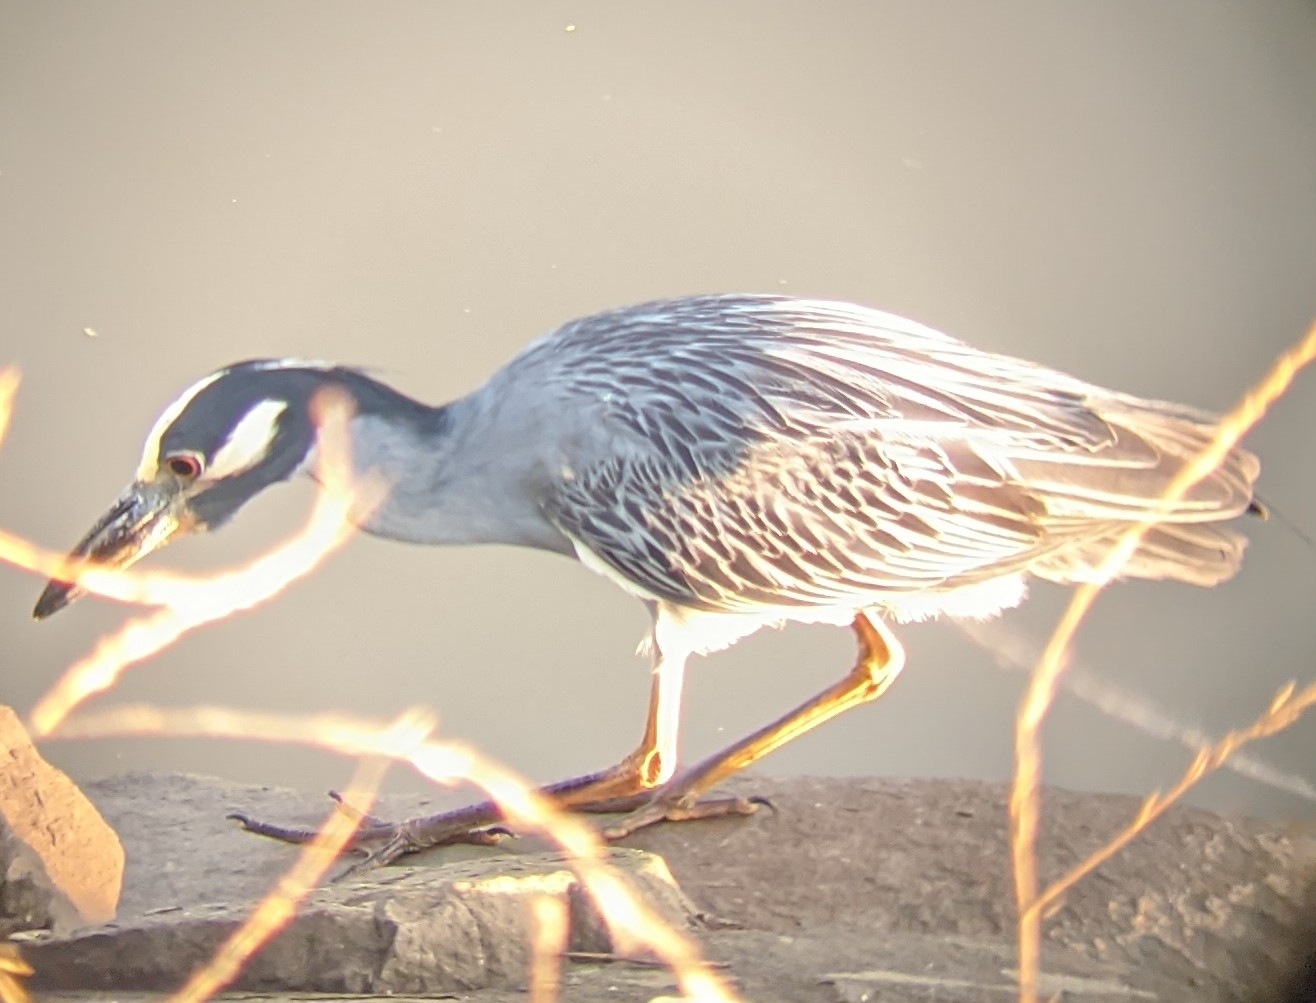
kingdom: Animalia
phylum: Chordata
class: Aves
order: Pelecaniformes
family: Ardeidae
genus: Nyctanassa
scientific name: Nyctanassa violacea
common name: Yellow-crowned night heron
